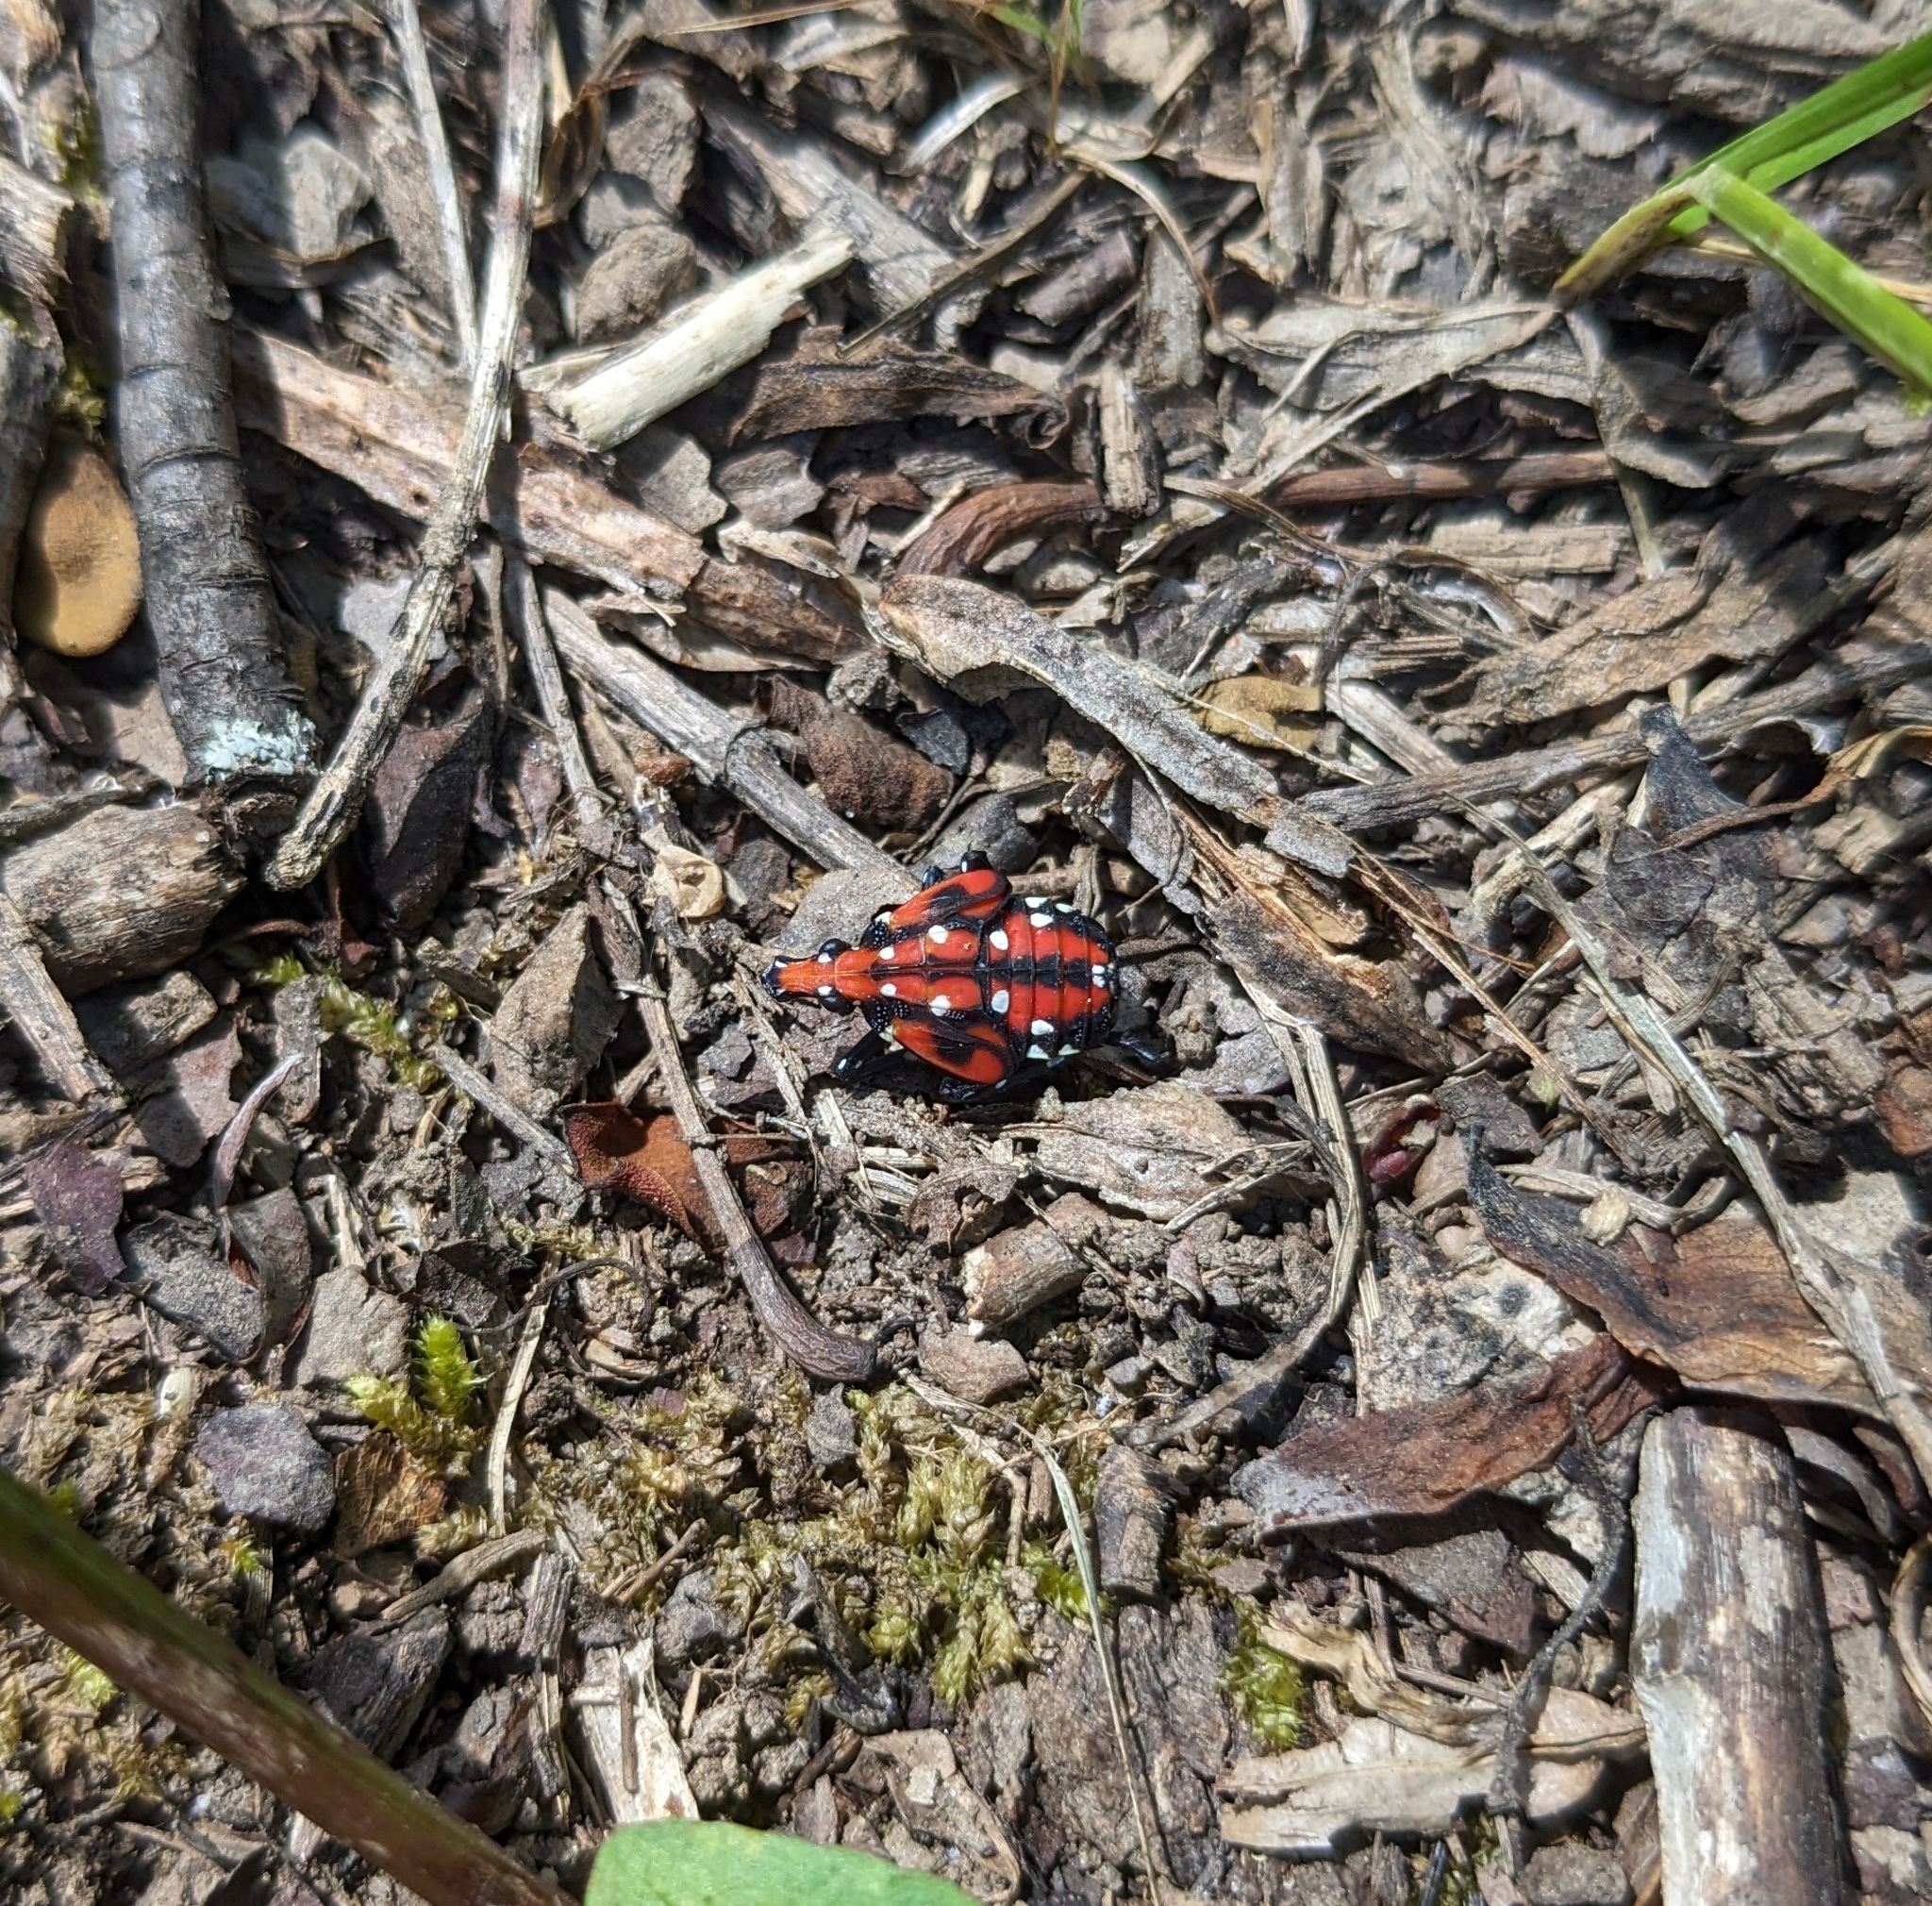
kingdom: Animalia
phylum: Arthropoda
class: Insecta
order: Hemiptera
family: Fulgoridae
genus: Lycorma
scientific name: Lycorma delicatula
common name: Spotted lanternfly
